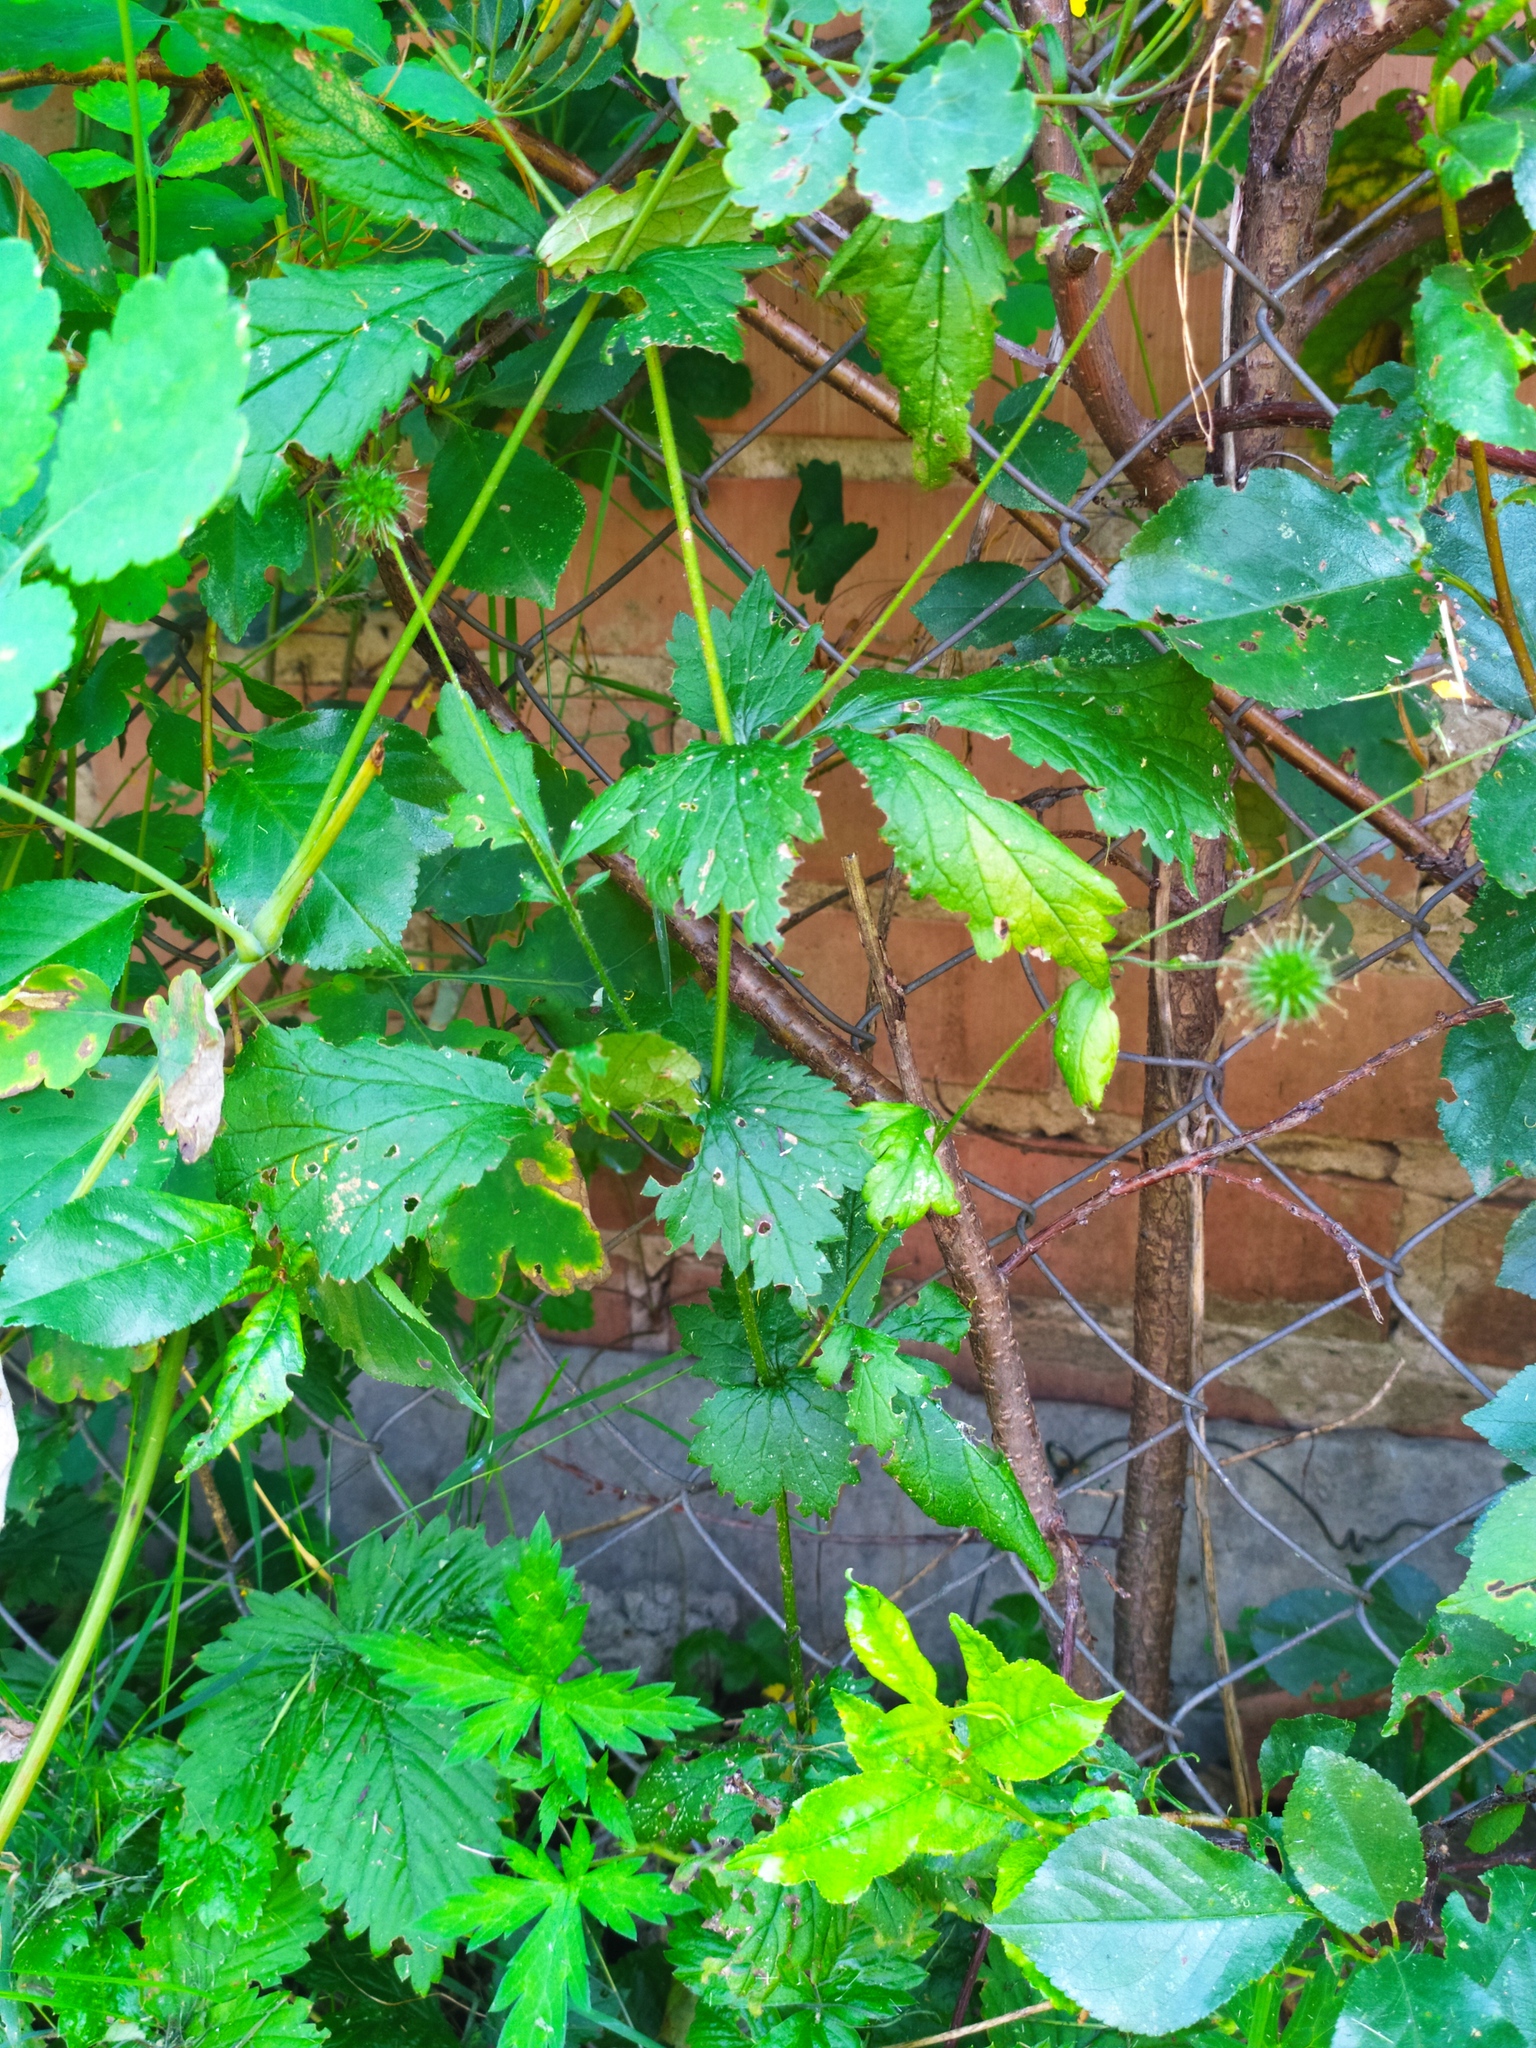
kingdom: Plantae
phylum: Tracheophyta
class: Magnoliopsida
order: Rosales
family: Rosaceae
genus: Geum
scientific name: Geum urbanum
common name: Wood avens
